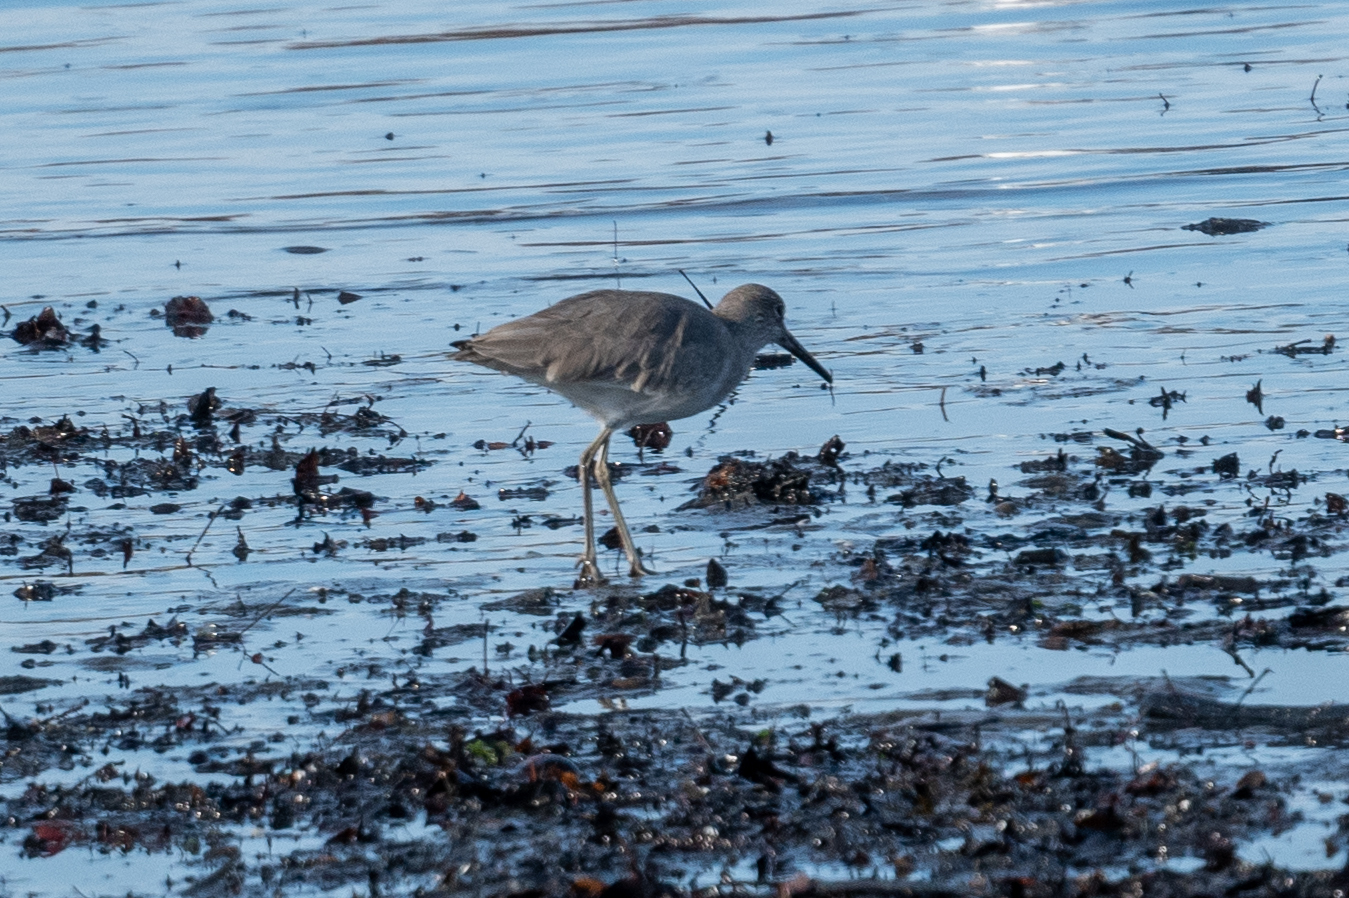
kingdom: Animalia
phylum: Chordata
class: Aves
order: Charadriiformes
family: Scolopacidae
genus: Tringa
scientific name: Tringa semipalmata
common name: Willet
